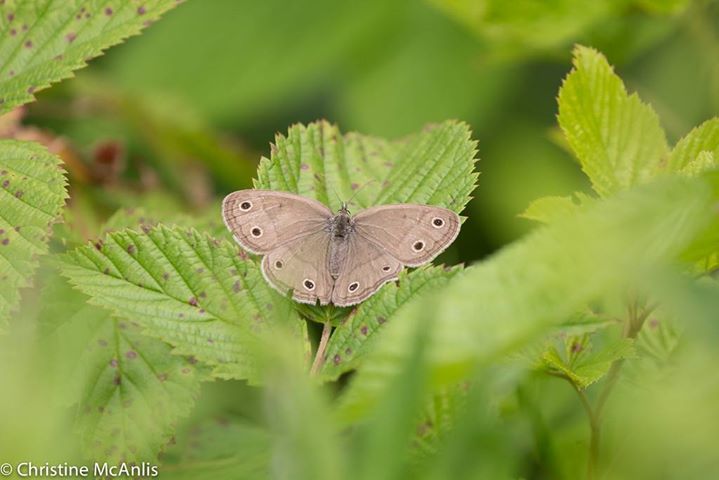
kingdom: Animalia
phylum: Arthropoda
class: Insecta
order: Lepidoptera
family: Nymphalidae
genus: Euptychia
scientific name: Euptychia cymela
